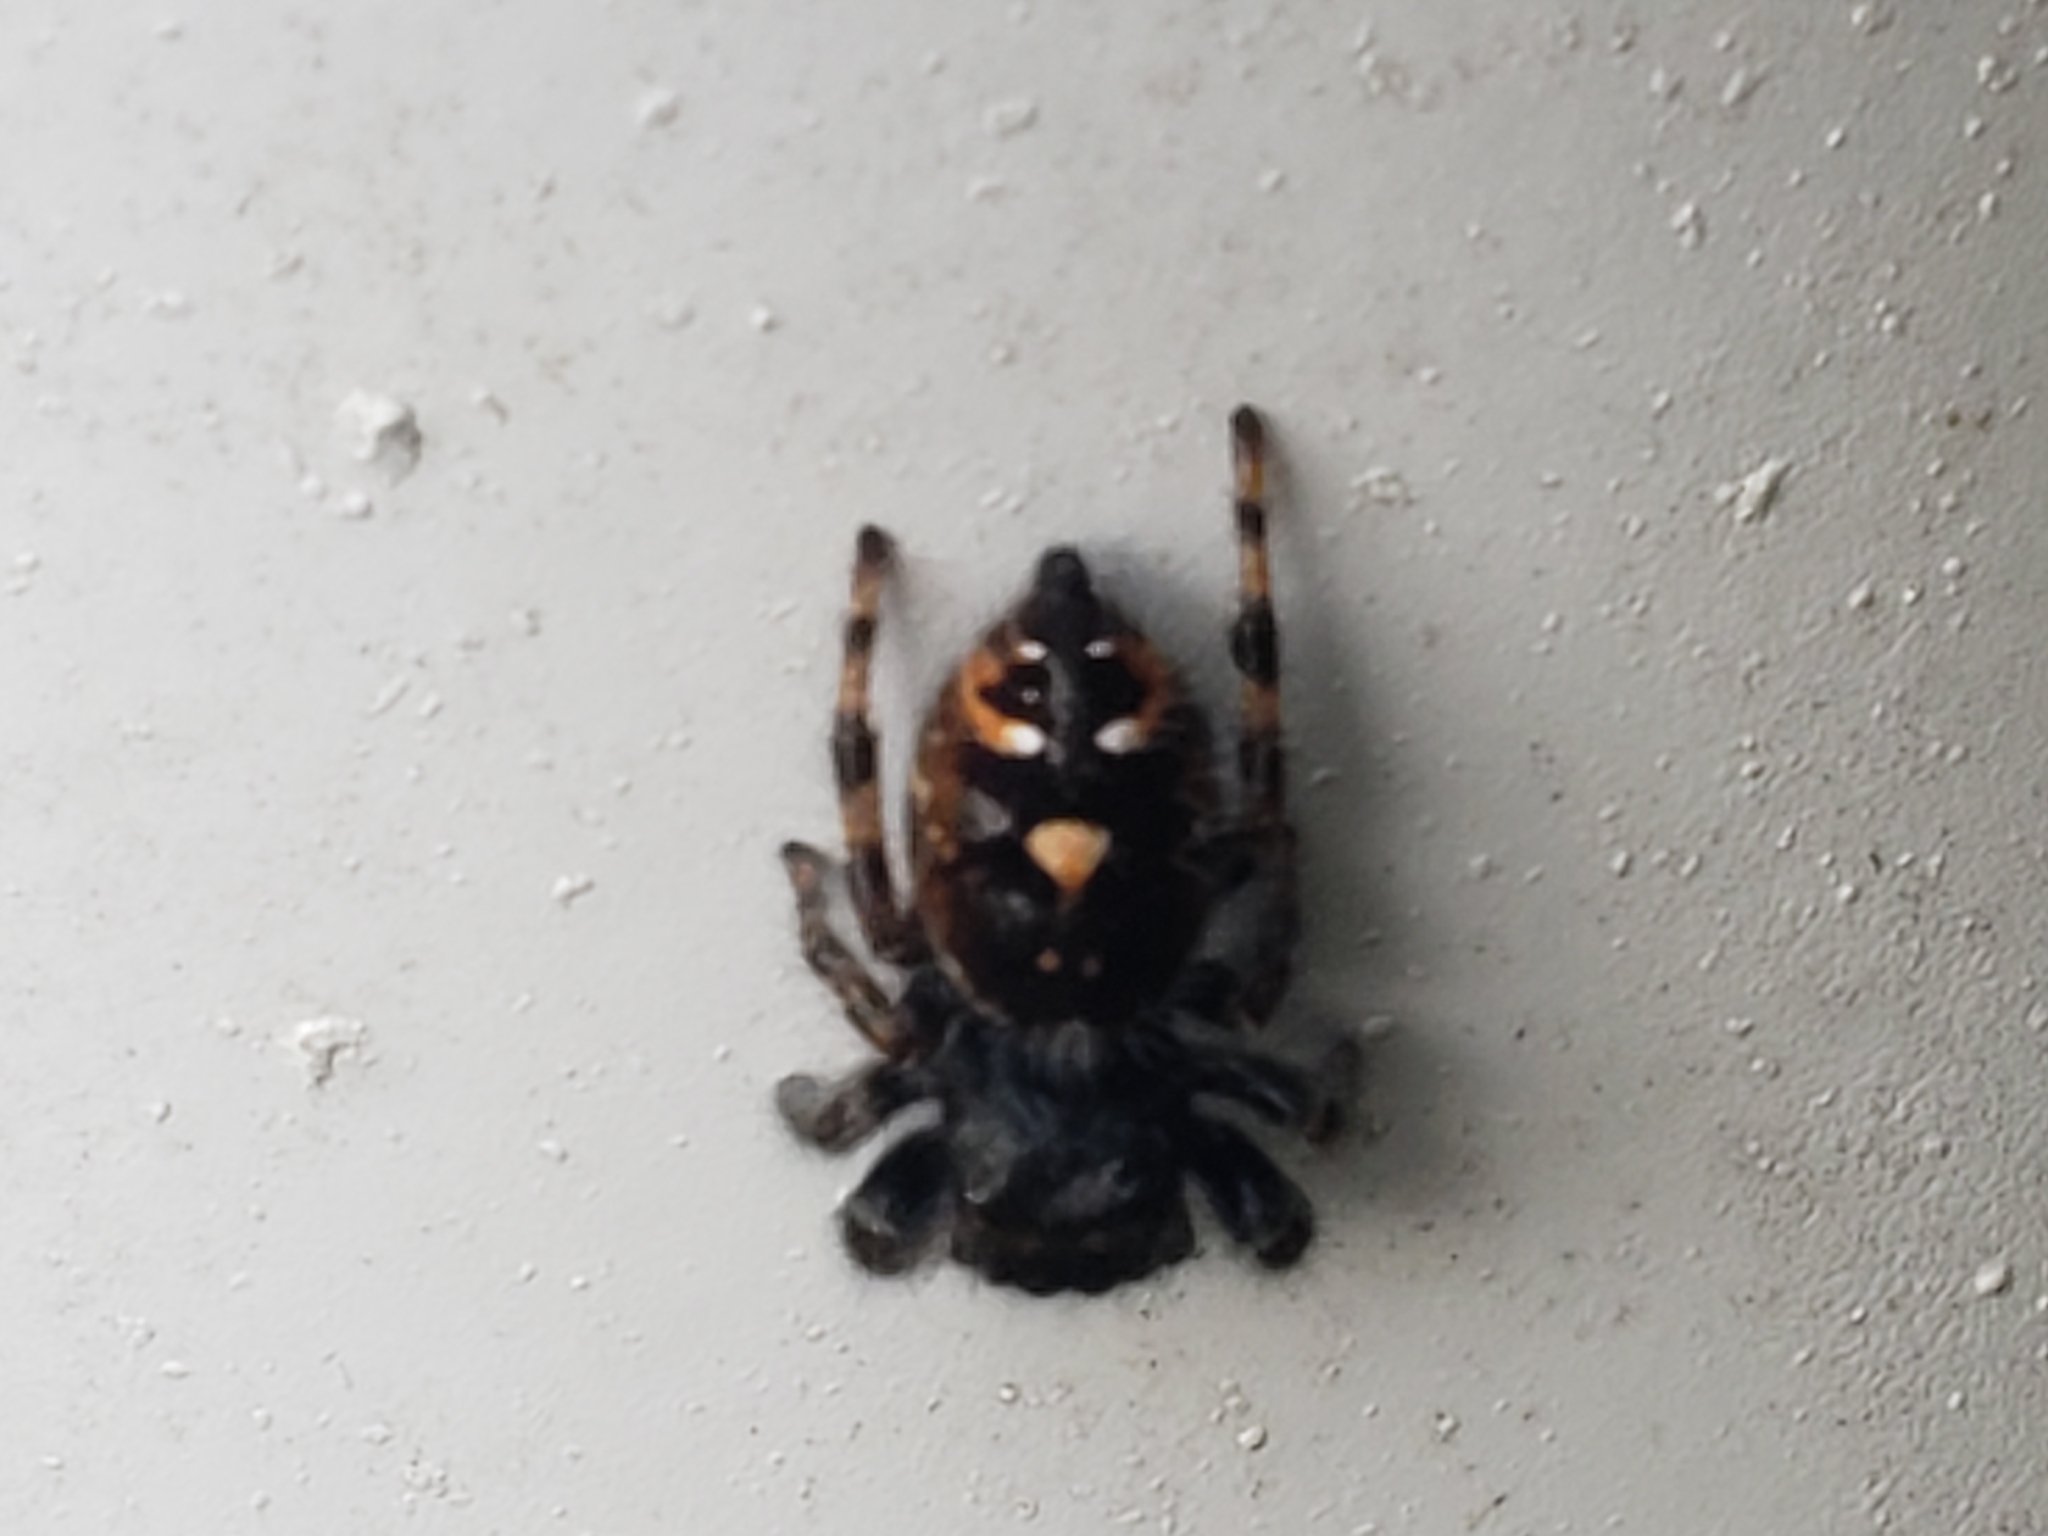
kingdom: Animalia
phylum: Arthropoda
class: Arachnida
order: Araneae
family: Salticidae
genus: Phidippus
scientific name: Phidippus audax
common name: Bold jumper
